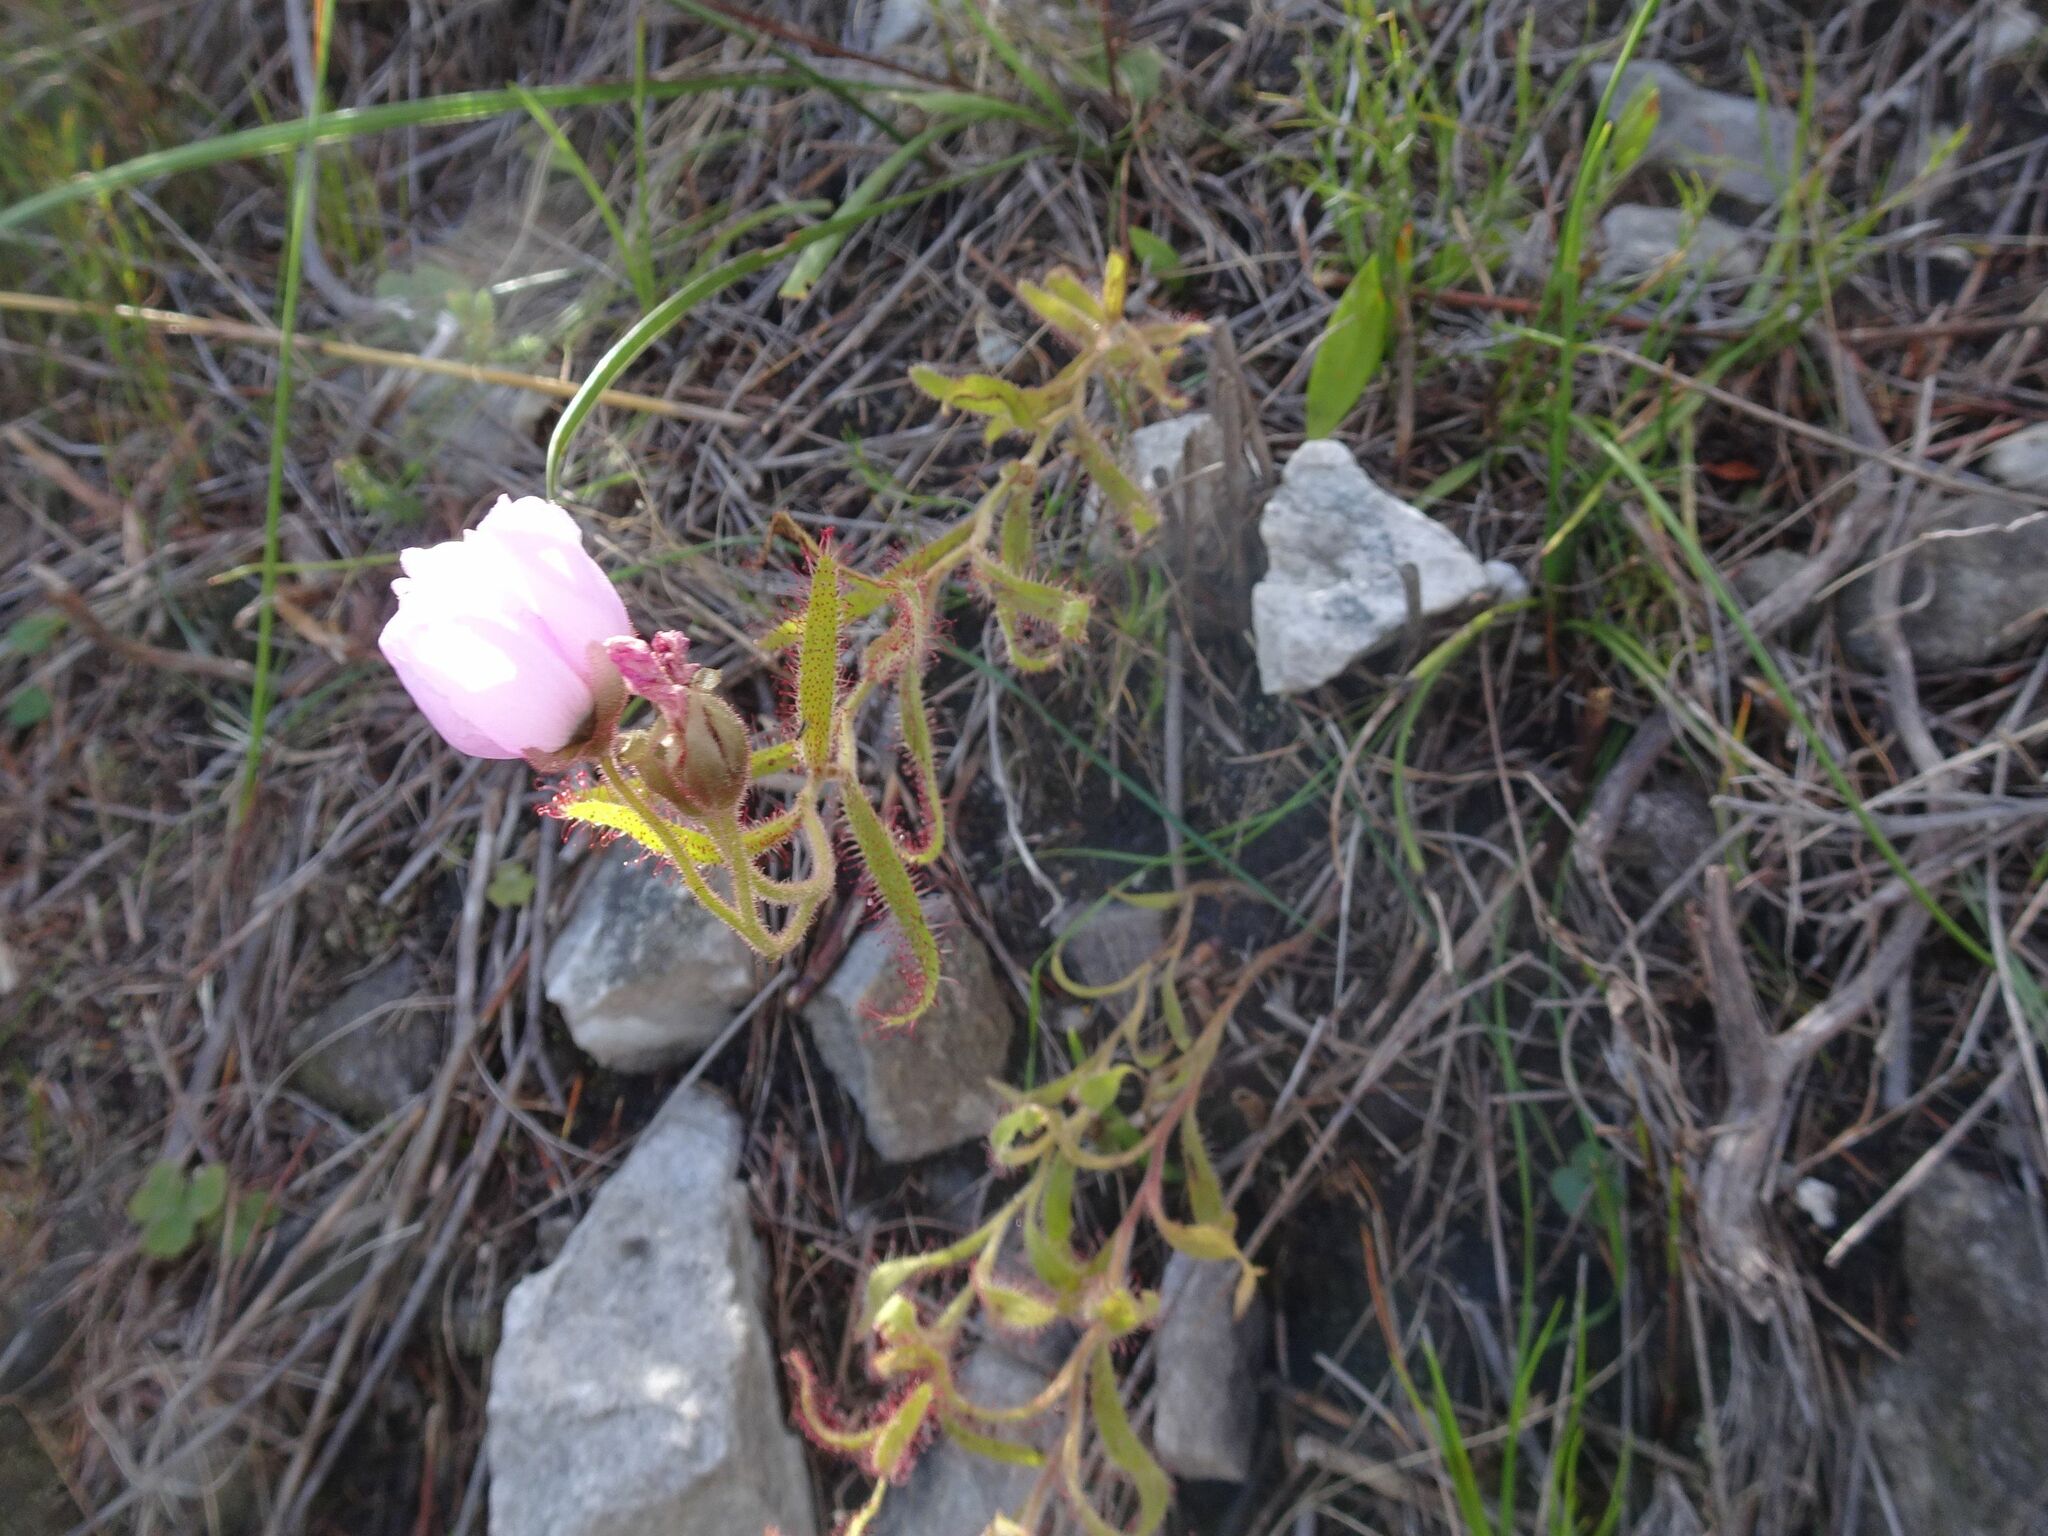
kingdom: Plantae
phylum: Tracheophyta
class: Magnoliopsida
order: Caryophyllales
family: Droseraceae
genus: Drosera
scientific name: Drosera cistiflora
